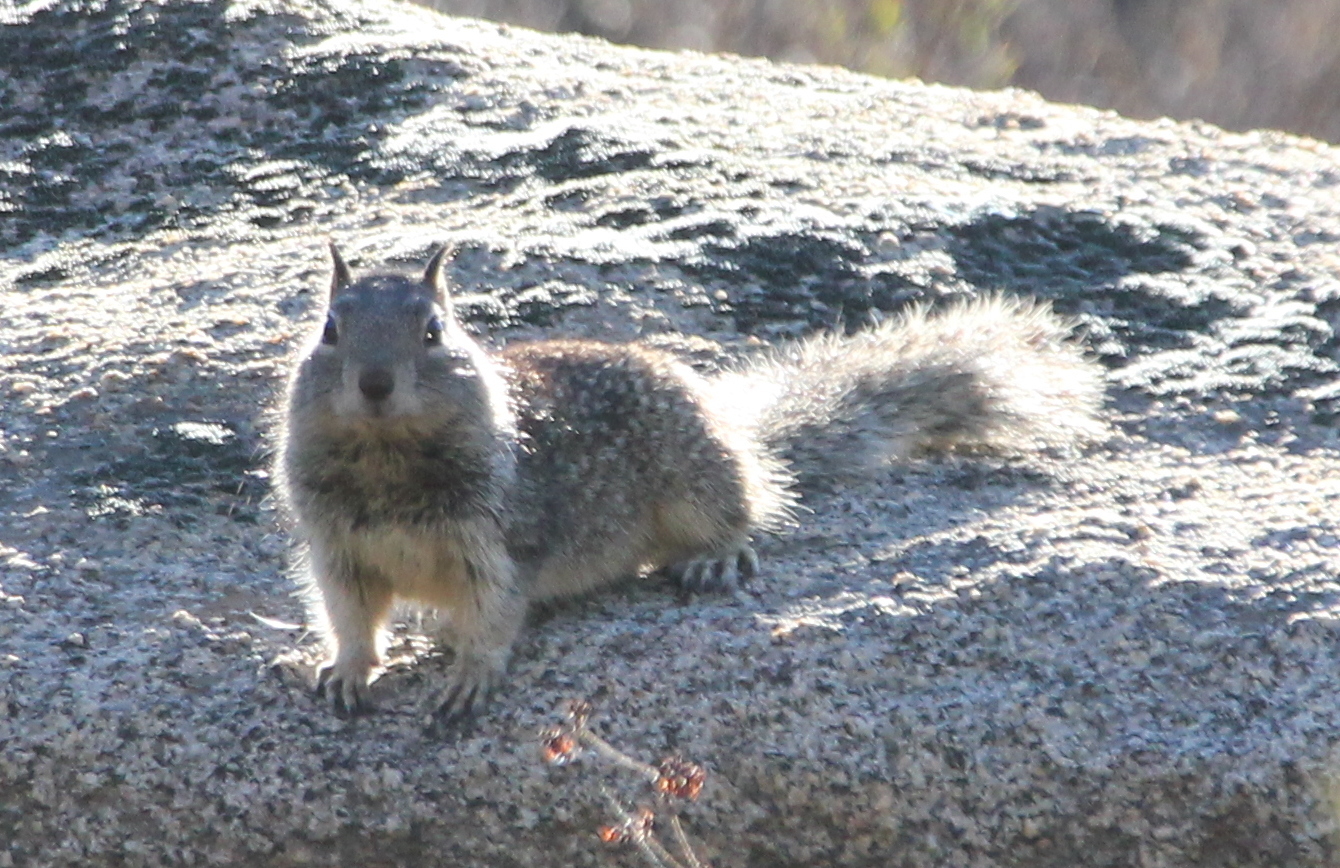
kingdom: Animalia
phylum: Chordata
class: Mammalia
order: Rodentia
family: Sciuridae
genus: Otospermophilus
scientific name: Otospermophilus beecheyi
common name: California ground squirrel
